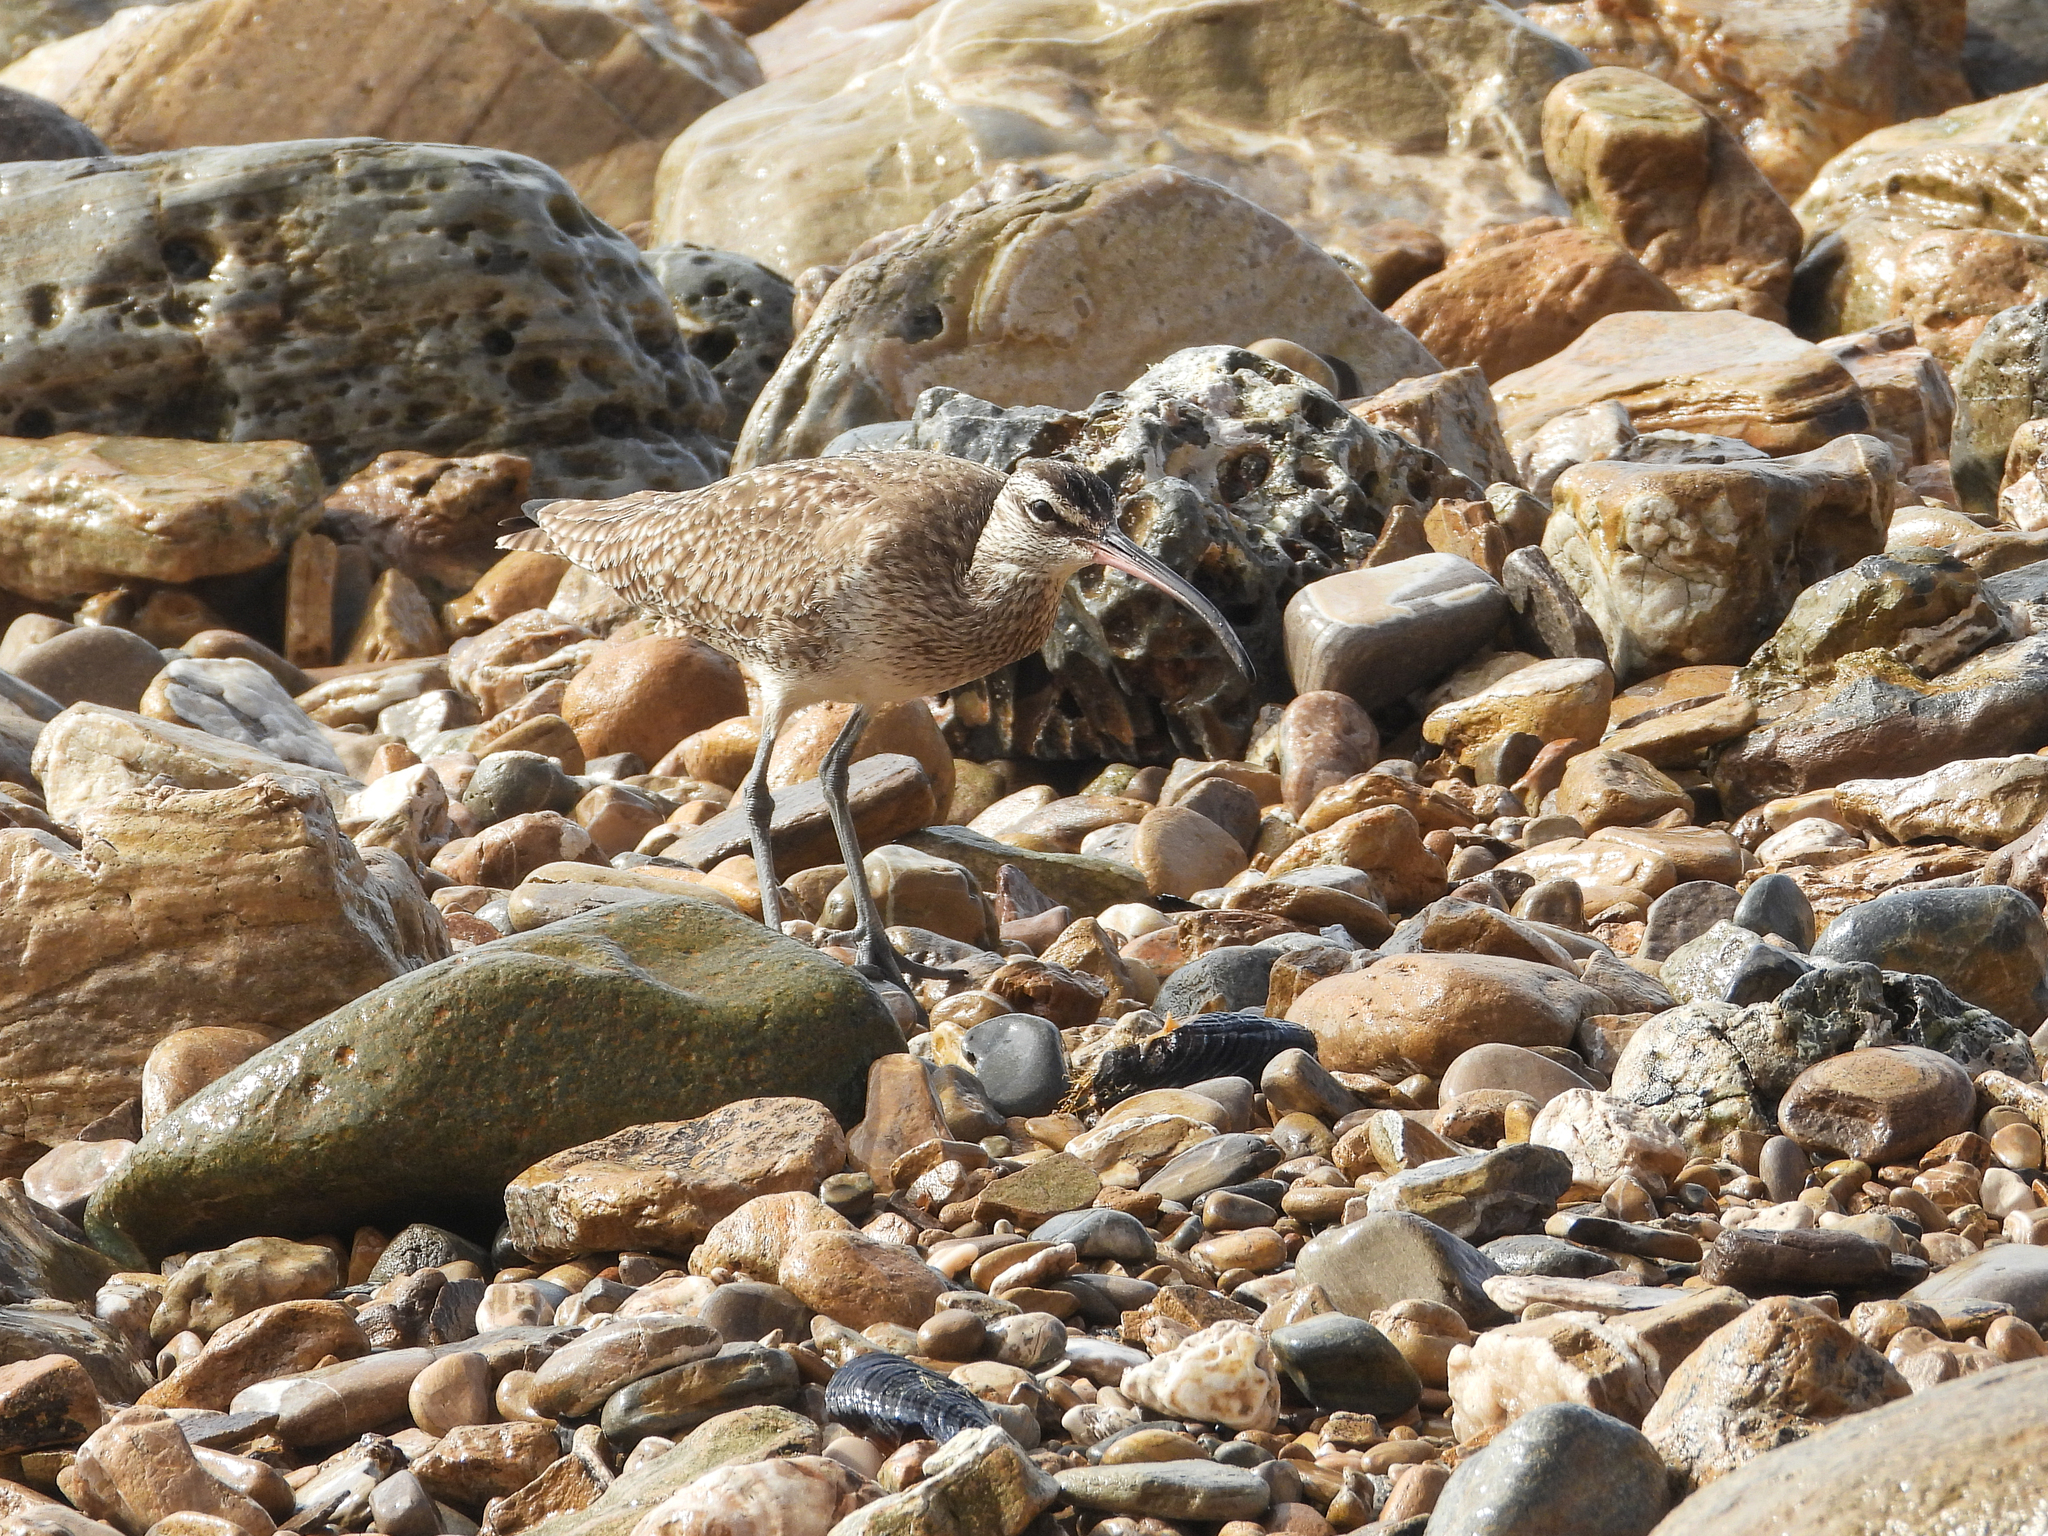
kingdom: Animalia
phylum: Chordata
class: Aves
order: Charadriiformes
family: Scolopacidae
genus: Numenius
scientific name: Numenius phaeopus
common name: Whimbrel
